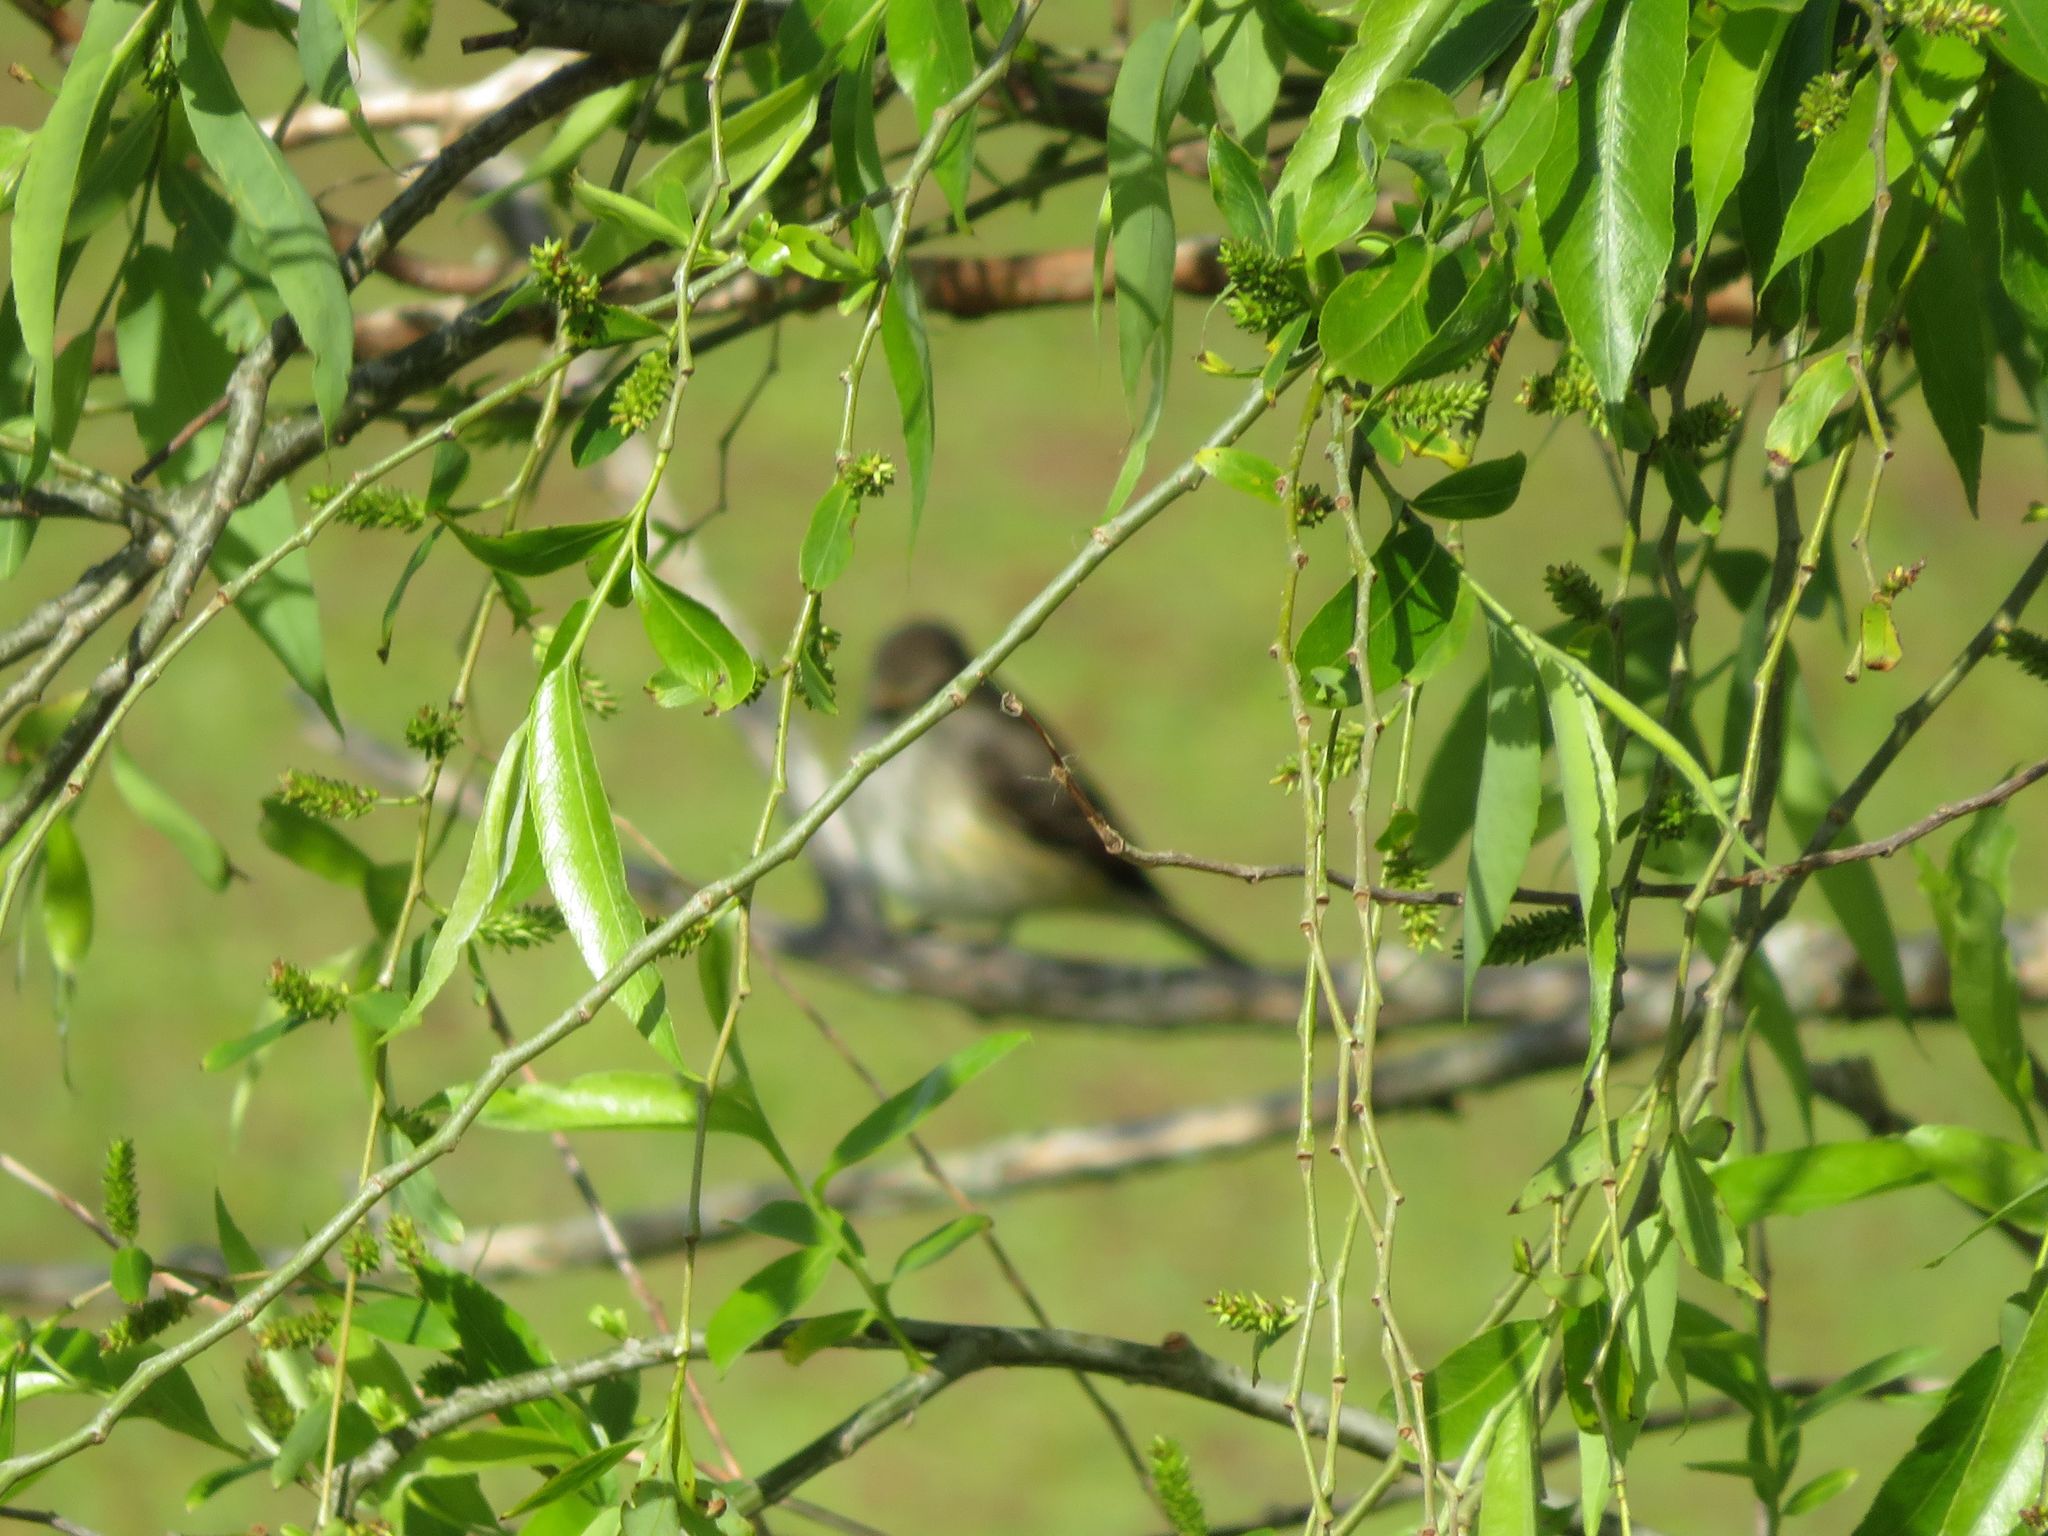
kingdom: Animalia
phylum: Chordata
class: Aves
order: Passeriformes
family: Tyrannidae
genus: Pyrocephalus
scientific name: Pyrocephalus rubinus
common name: Vermilion flycatcher
